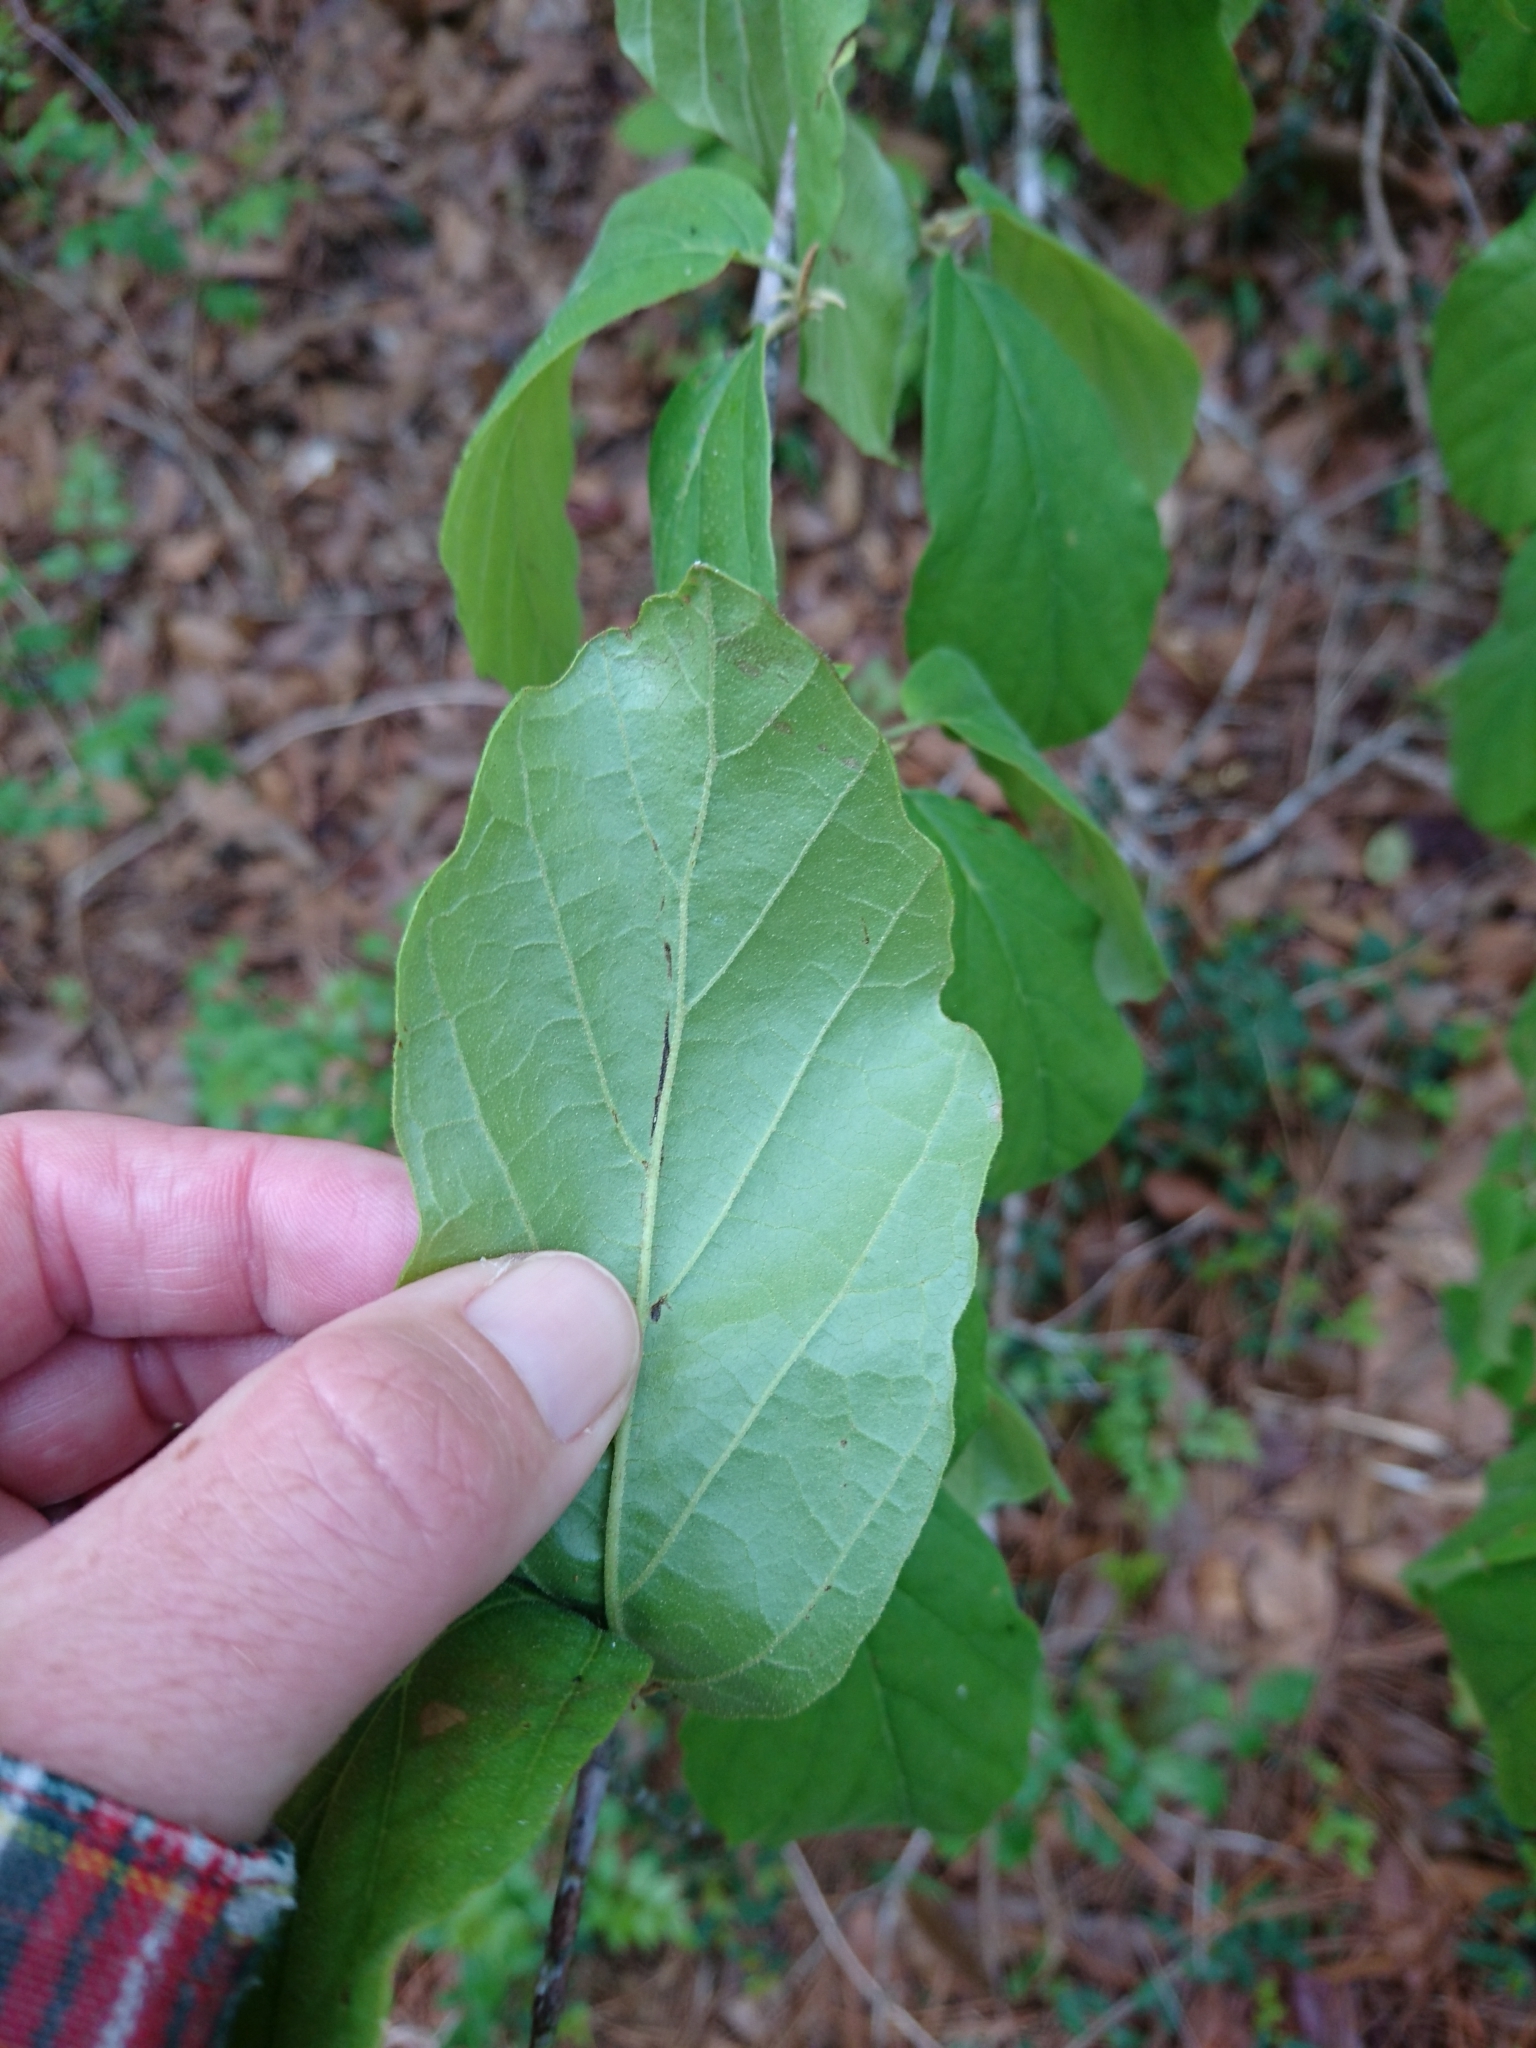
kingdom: Plantae
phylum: Tracheophyta
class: Magnoliopsida
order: Saxifragales
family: Hamamelidaceae
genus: Hamamelis
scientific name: Hamamelis virginiana
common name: Witch-hazel
